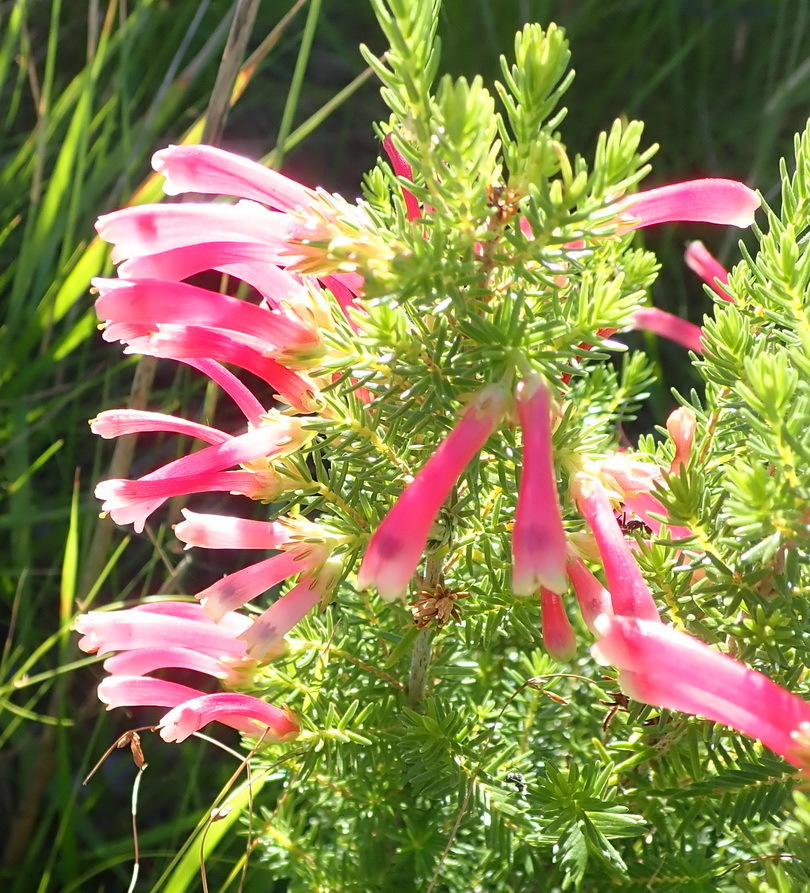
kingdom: Plantae
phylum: Tracheophyta
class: Magnoliopsida
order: Ericales
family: Ericaceae
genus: Erica
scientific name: Erica discolor
